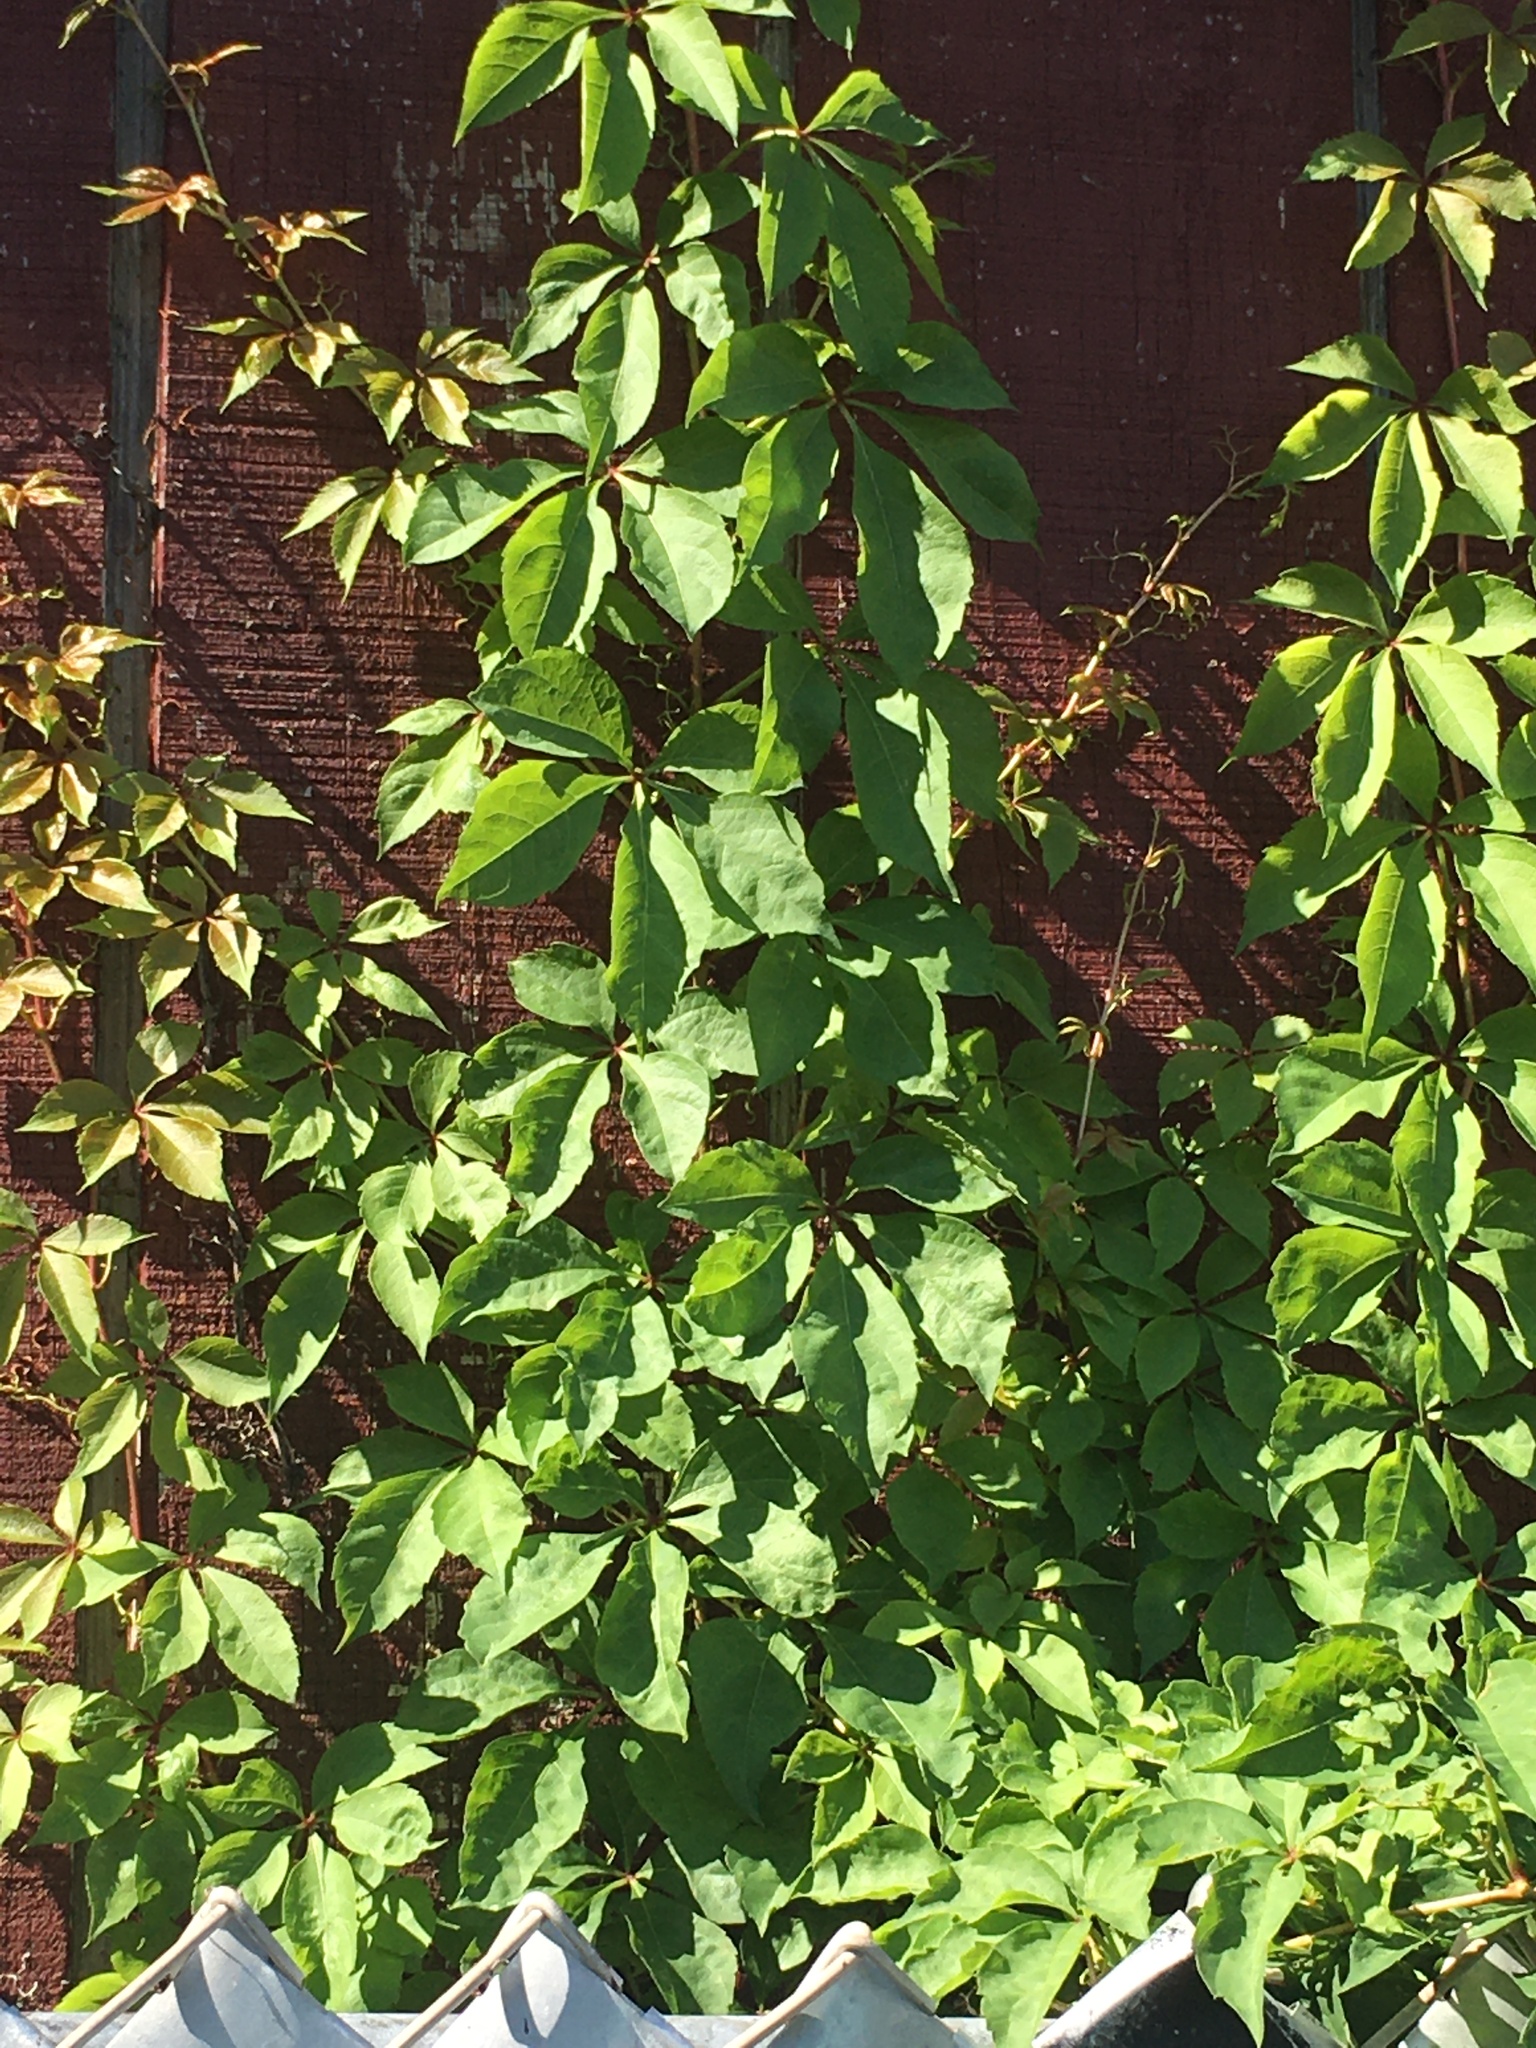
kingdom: Plantae
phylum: Tracheophyta
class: Magnoliopsida
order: Vitales
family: Vitaceae
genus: Parthenocissus
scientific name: Parthenocissus quinquefolia
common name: Virginia-creeper
